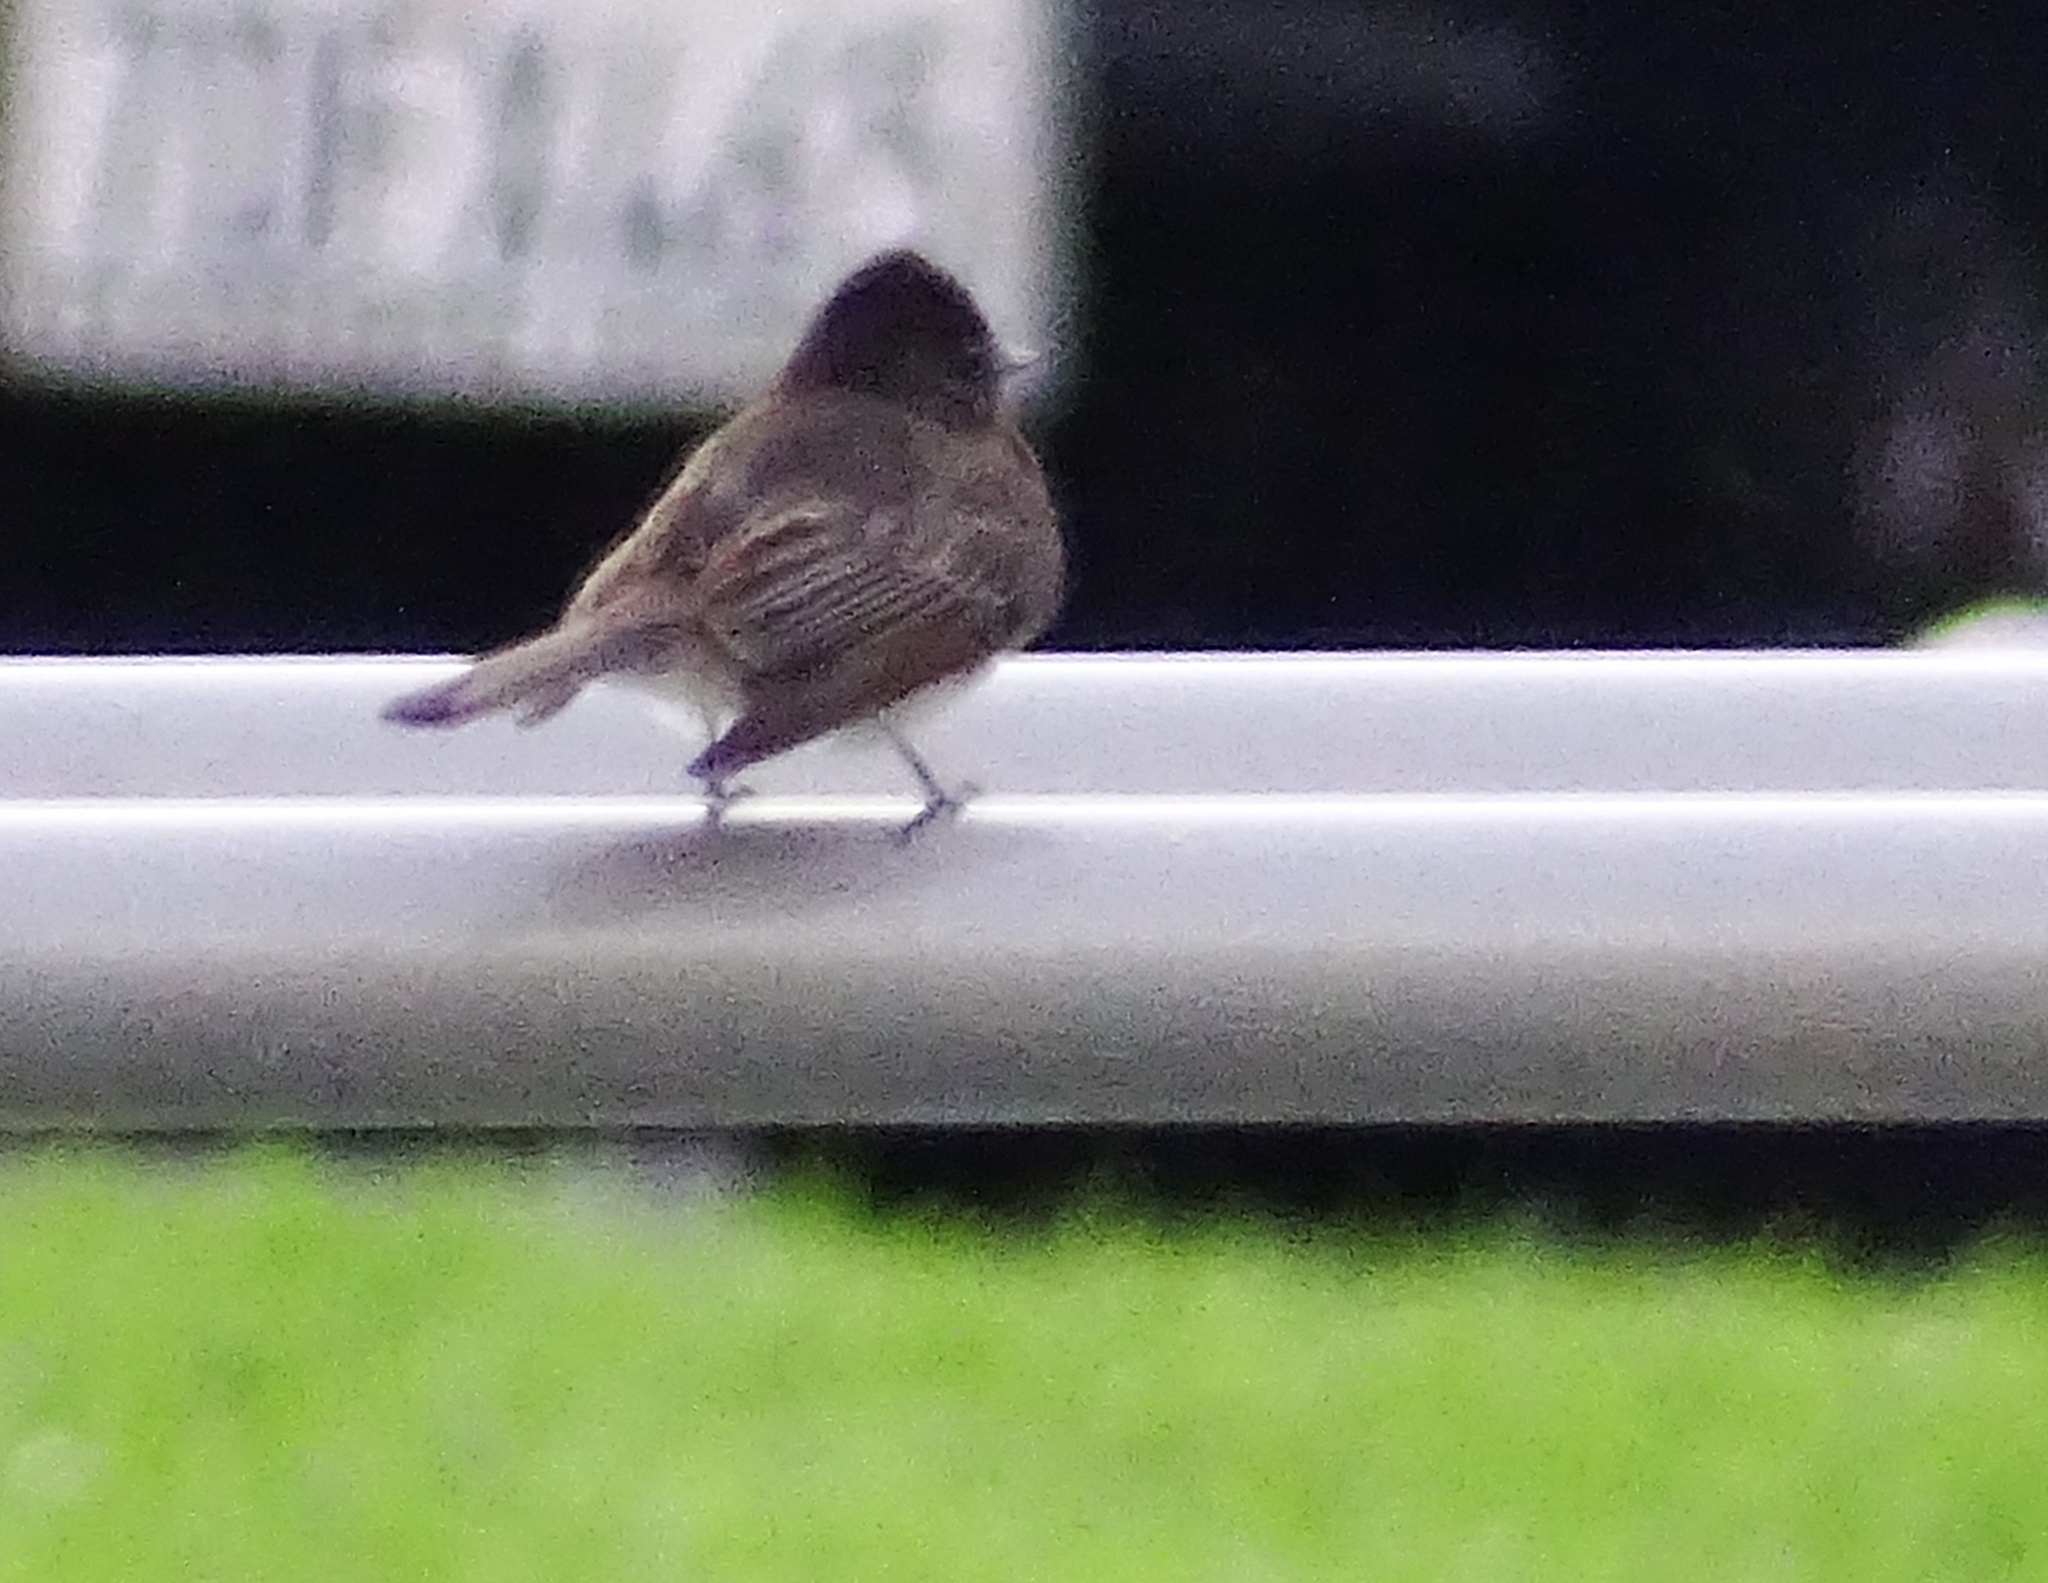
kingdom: Animalia
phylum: Chordata
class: Aves
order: Passeriformes
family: Tyrannidae
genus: Sayornis
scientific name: Sayornis nigricans
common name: Black phoebe
